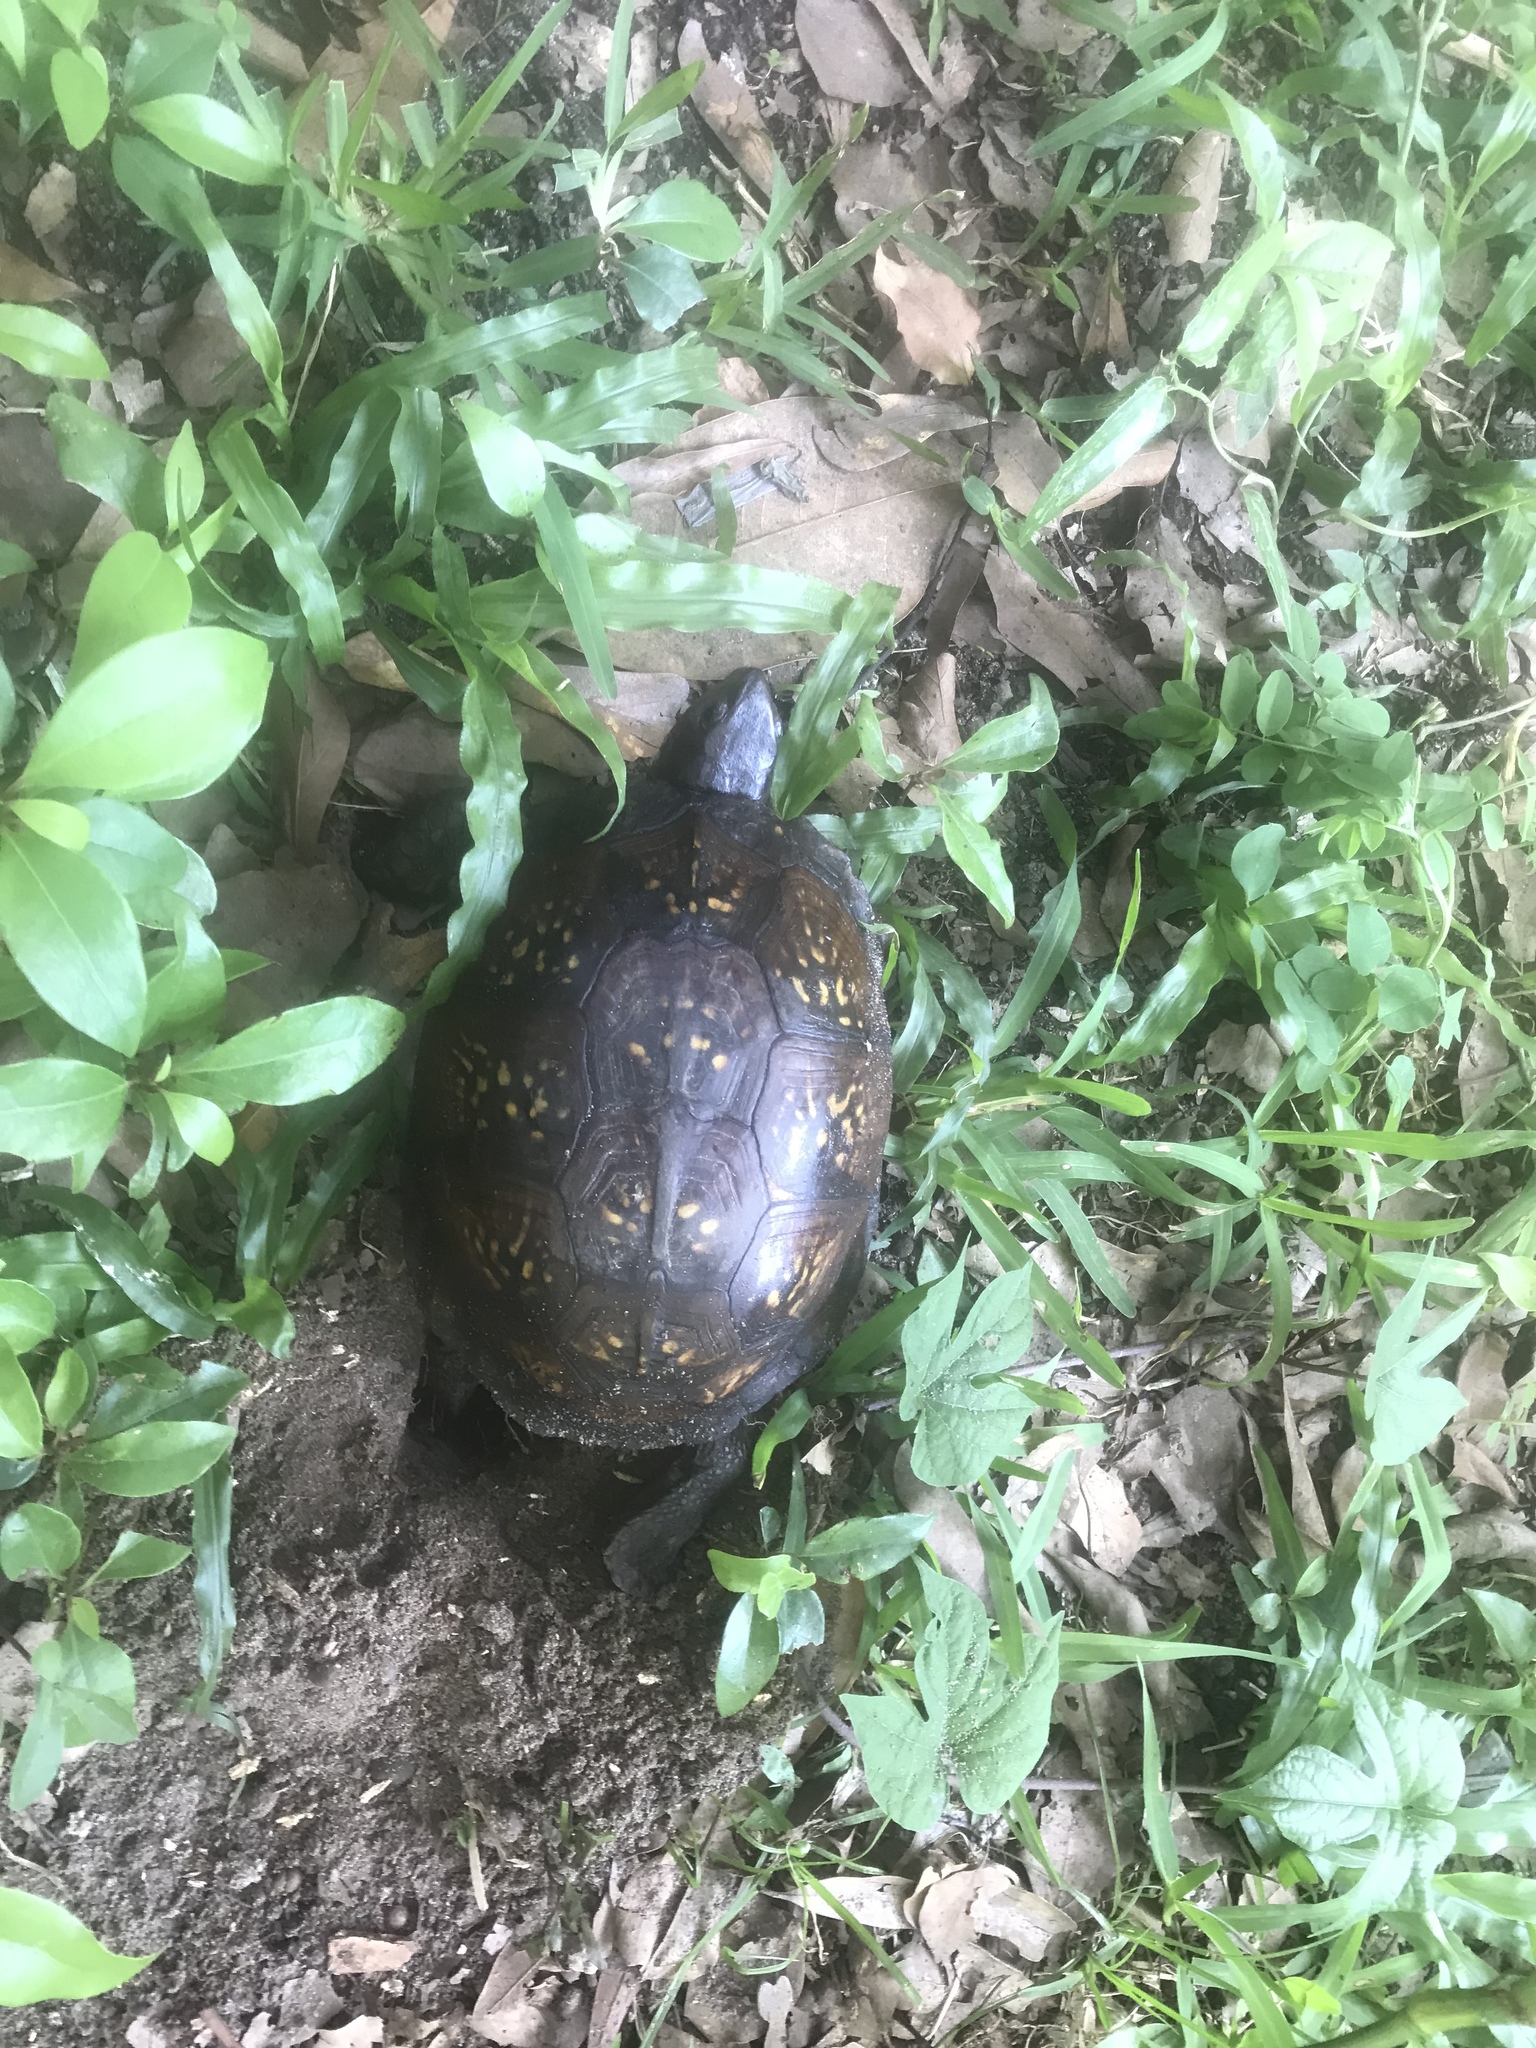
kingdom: Animalia
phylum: Chordata
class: Testudines
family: Emydidae
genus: Terrapene
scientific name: Terrapene carolina
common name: Common box turtle
